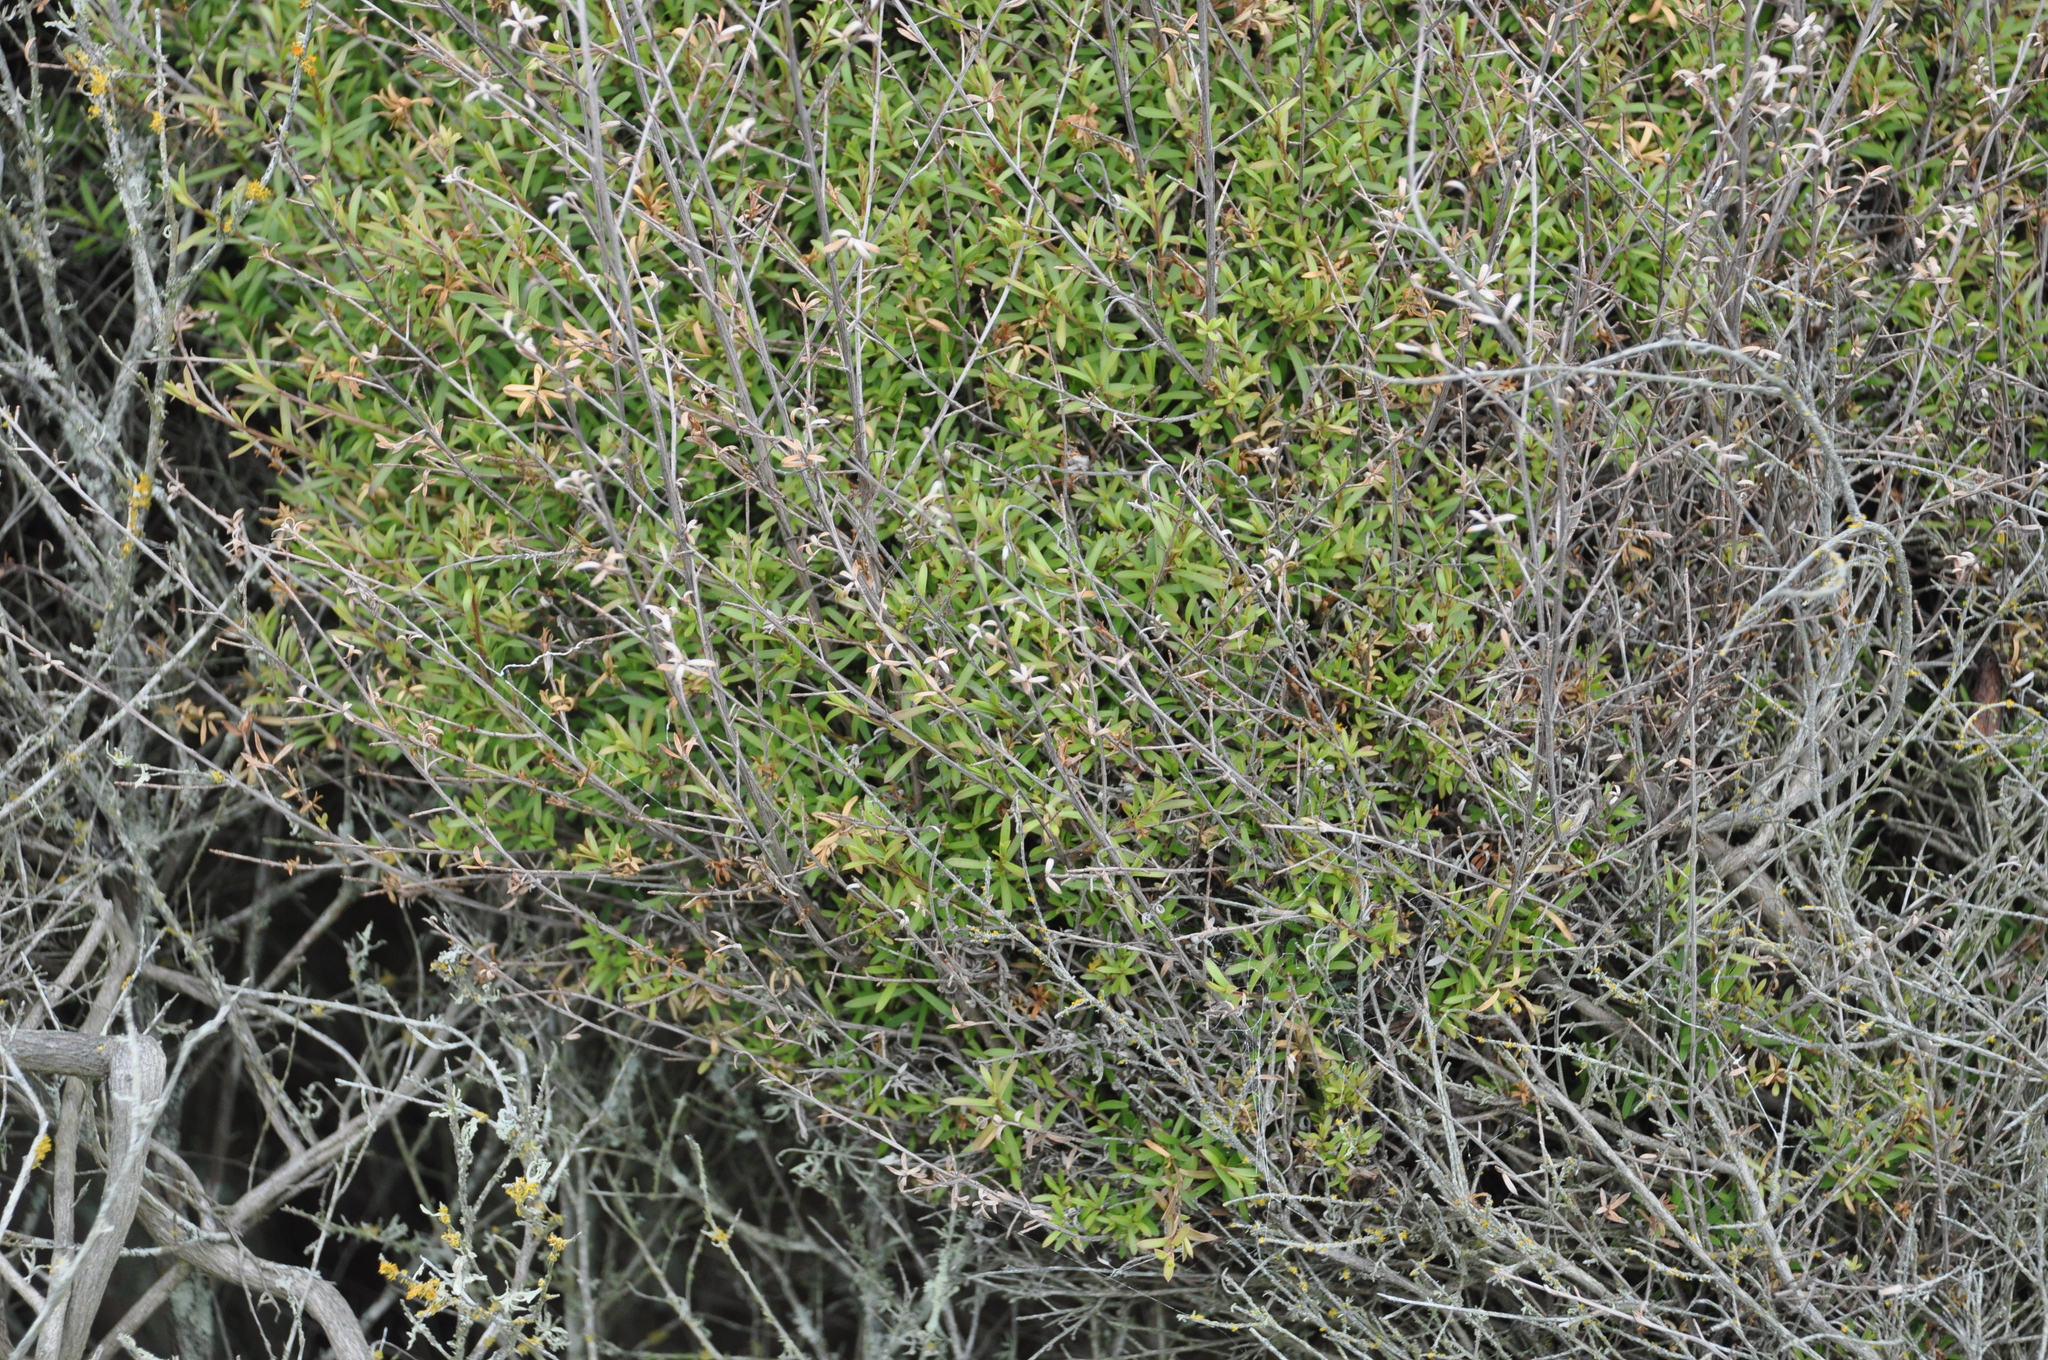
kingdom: Plantae
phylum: Tracheophyta
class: Magnoliopsida
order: Myrtales
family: Myrtaceae
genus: Leptospermum
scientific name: Leptospermum scoparium
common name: Broom tea-tree
